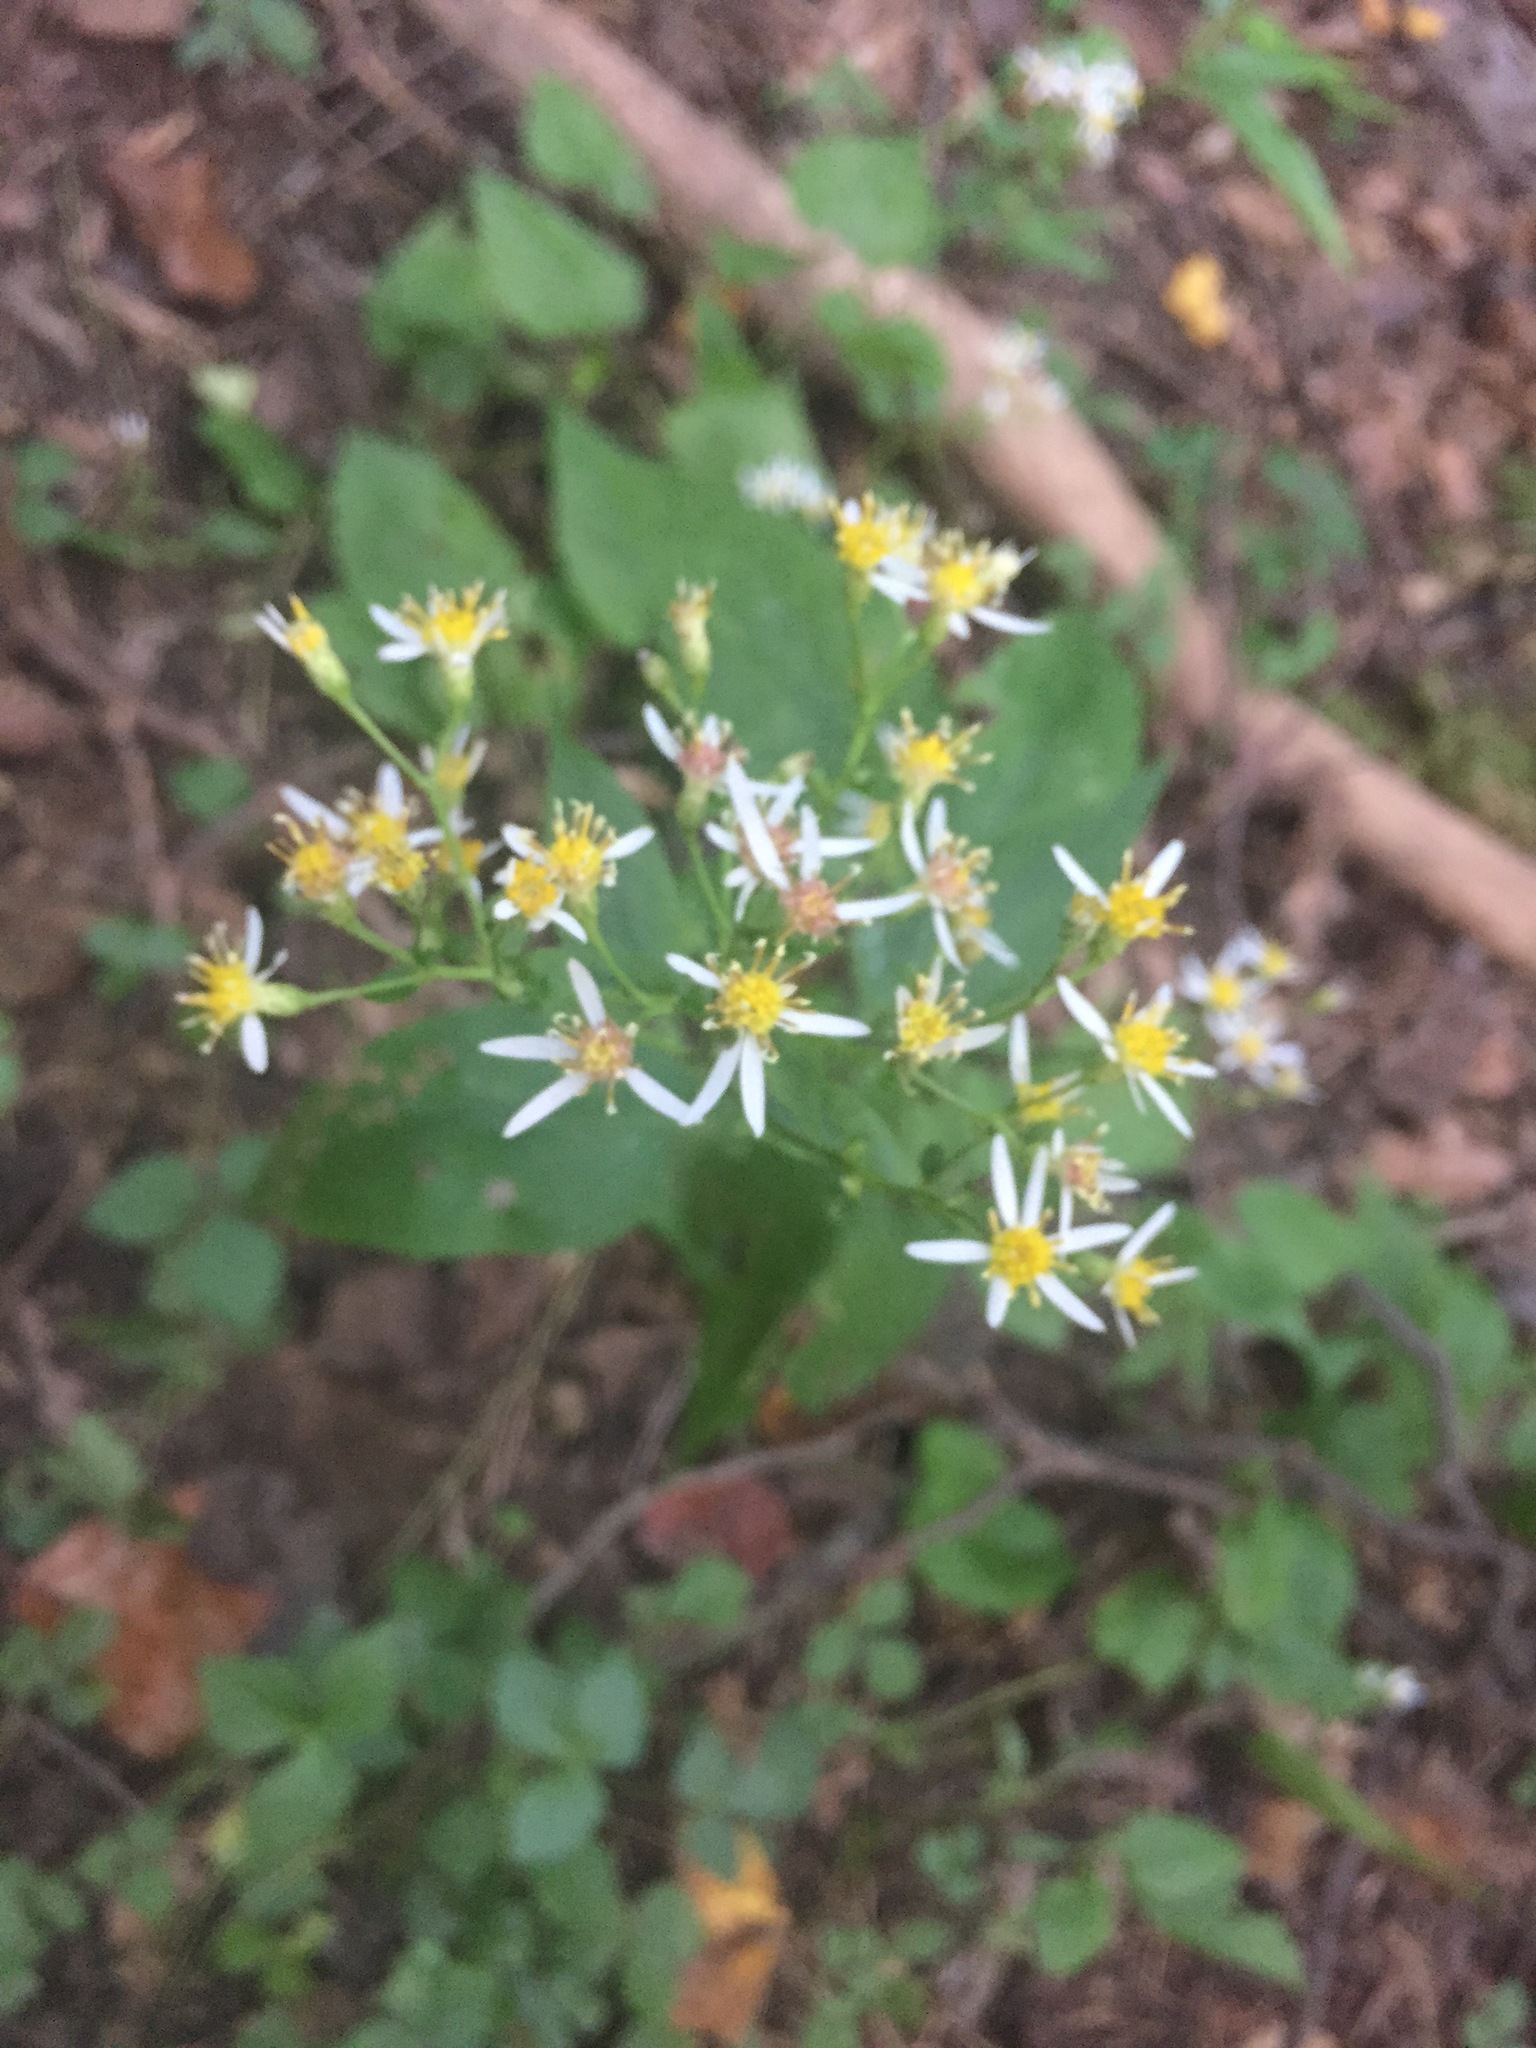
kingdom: Plantae
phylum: Tracheophyta
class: Magnoliopsida
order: Asterales
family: Asteraceae
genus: Eurybia
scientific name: Eurybia divaricata
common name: White wood aster
